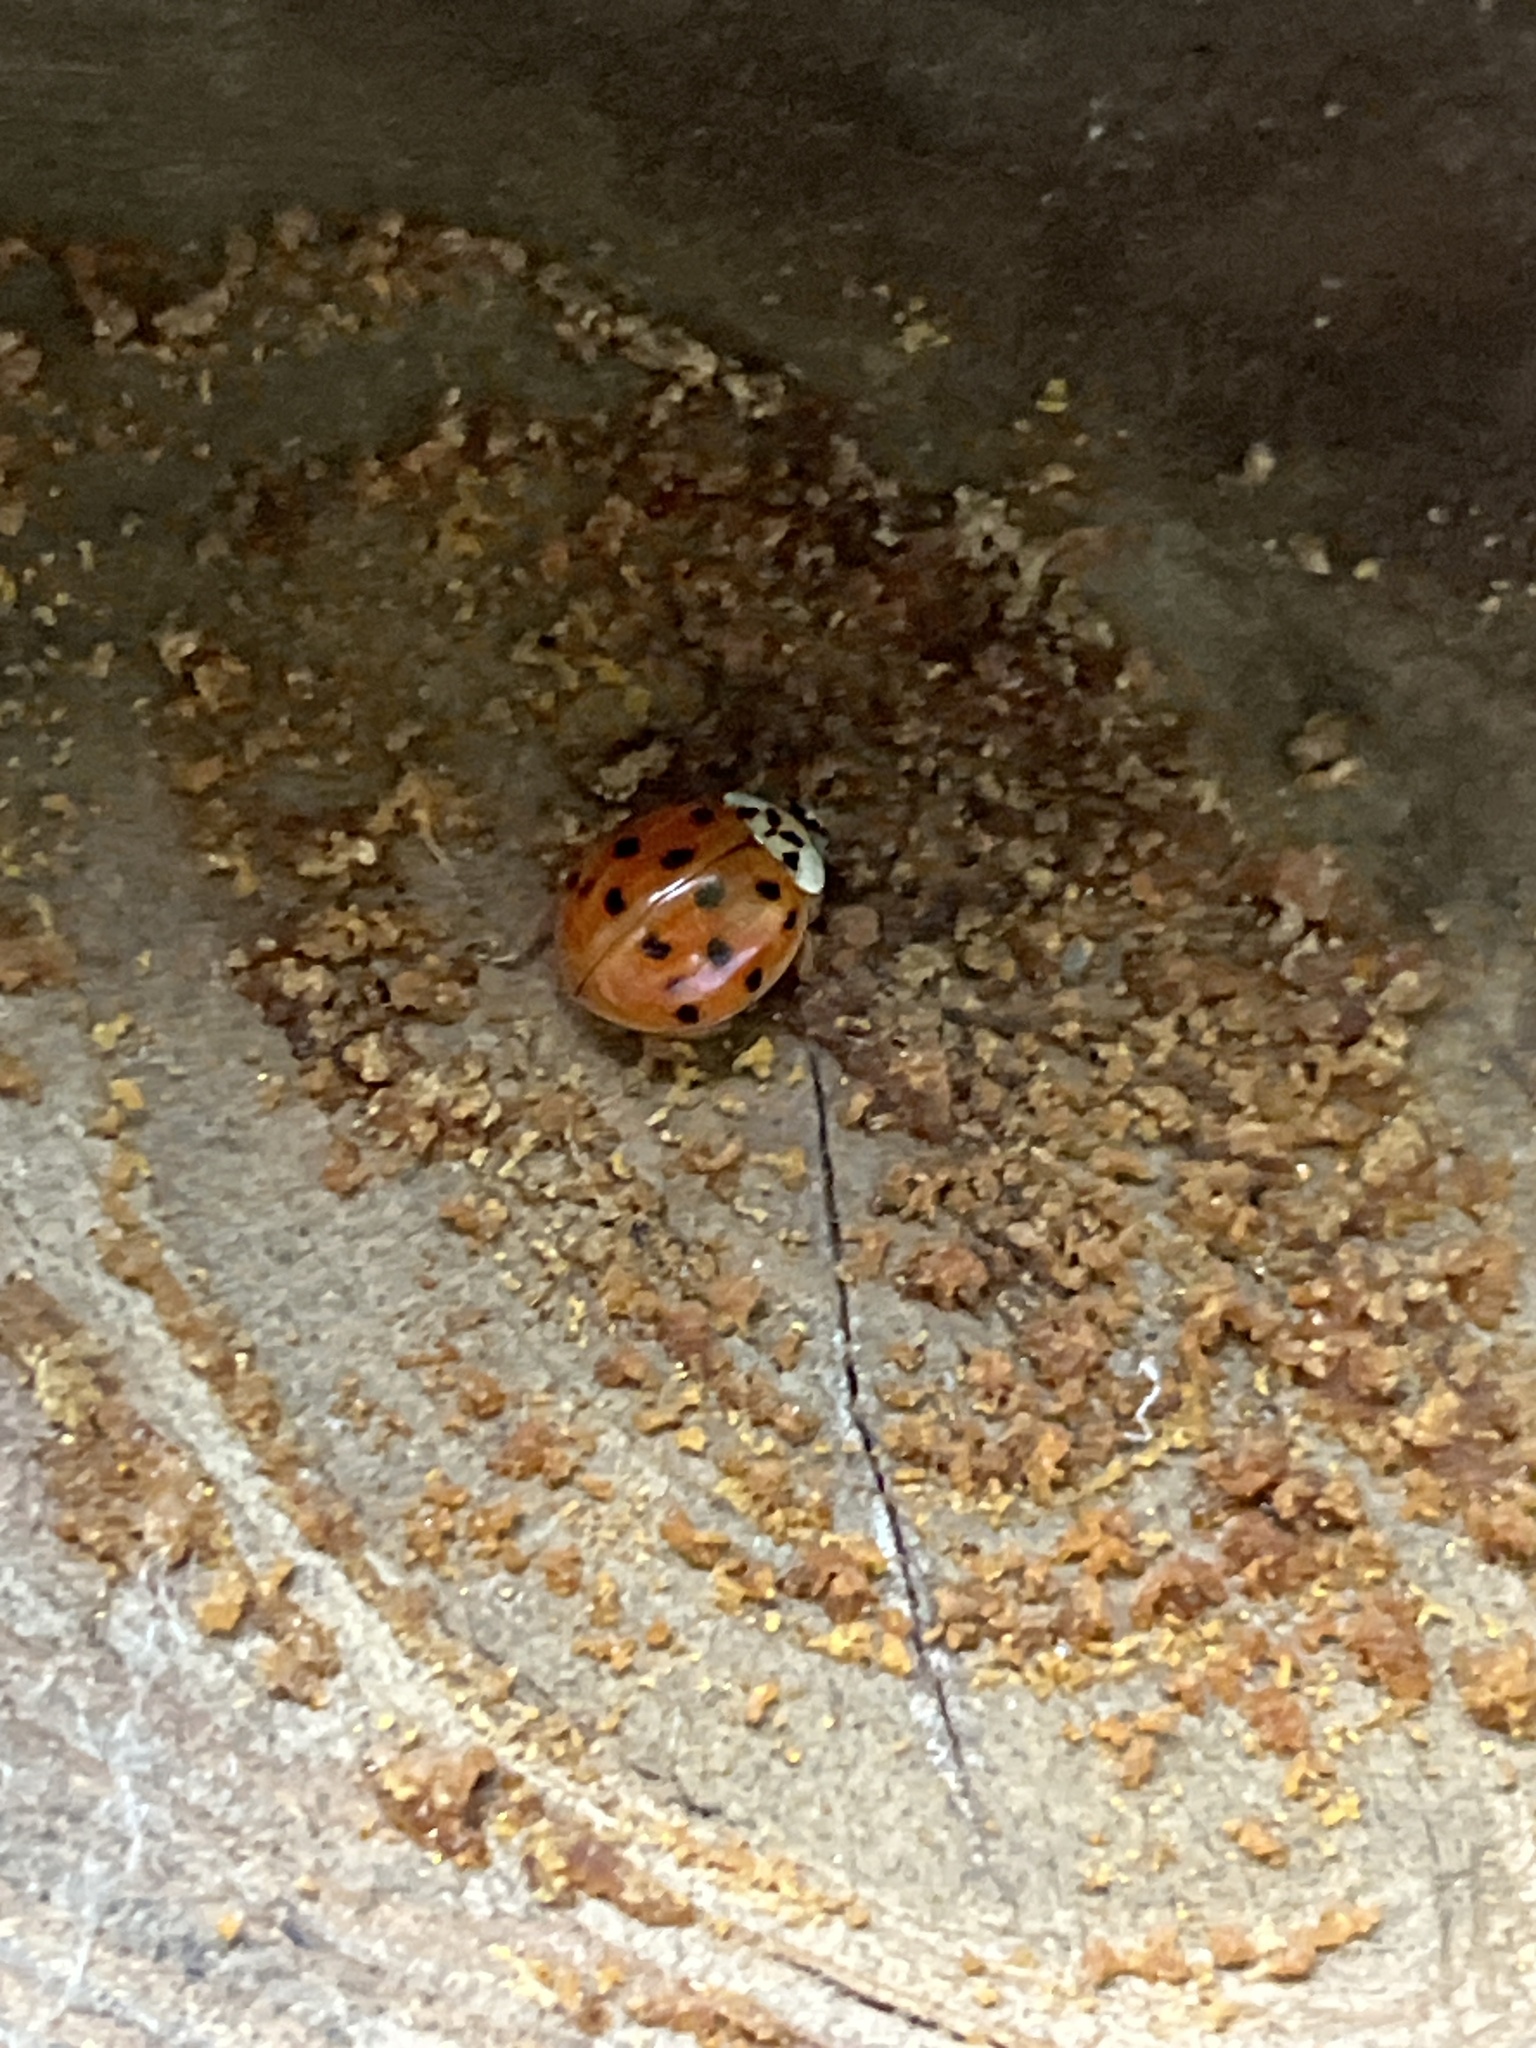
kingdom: Animalia
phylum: Arthropoda
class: Insecta
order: Coleoptera
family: Coccinellidae
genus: Harmonia
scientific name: Harmonia axyridis
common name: Harlequin ladybird
